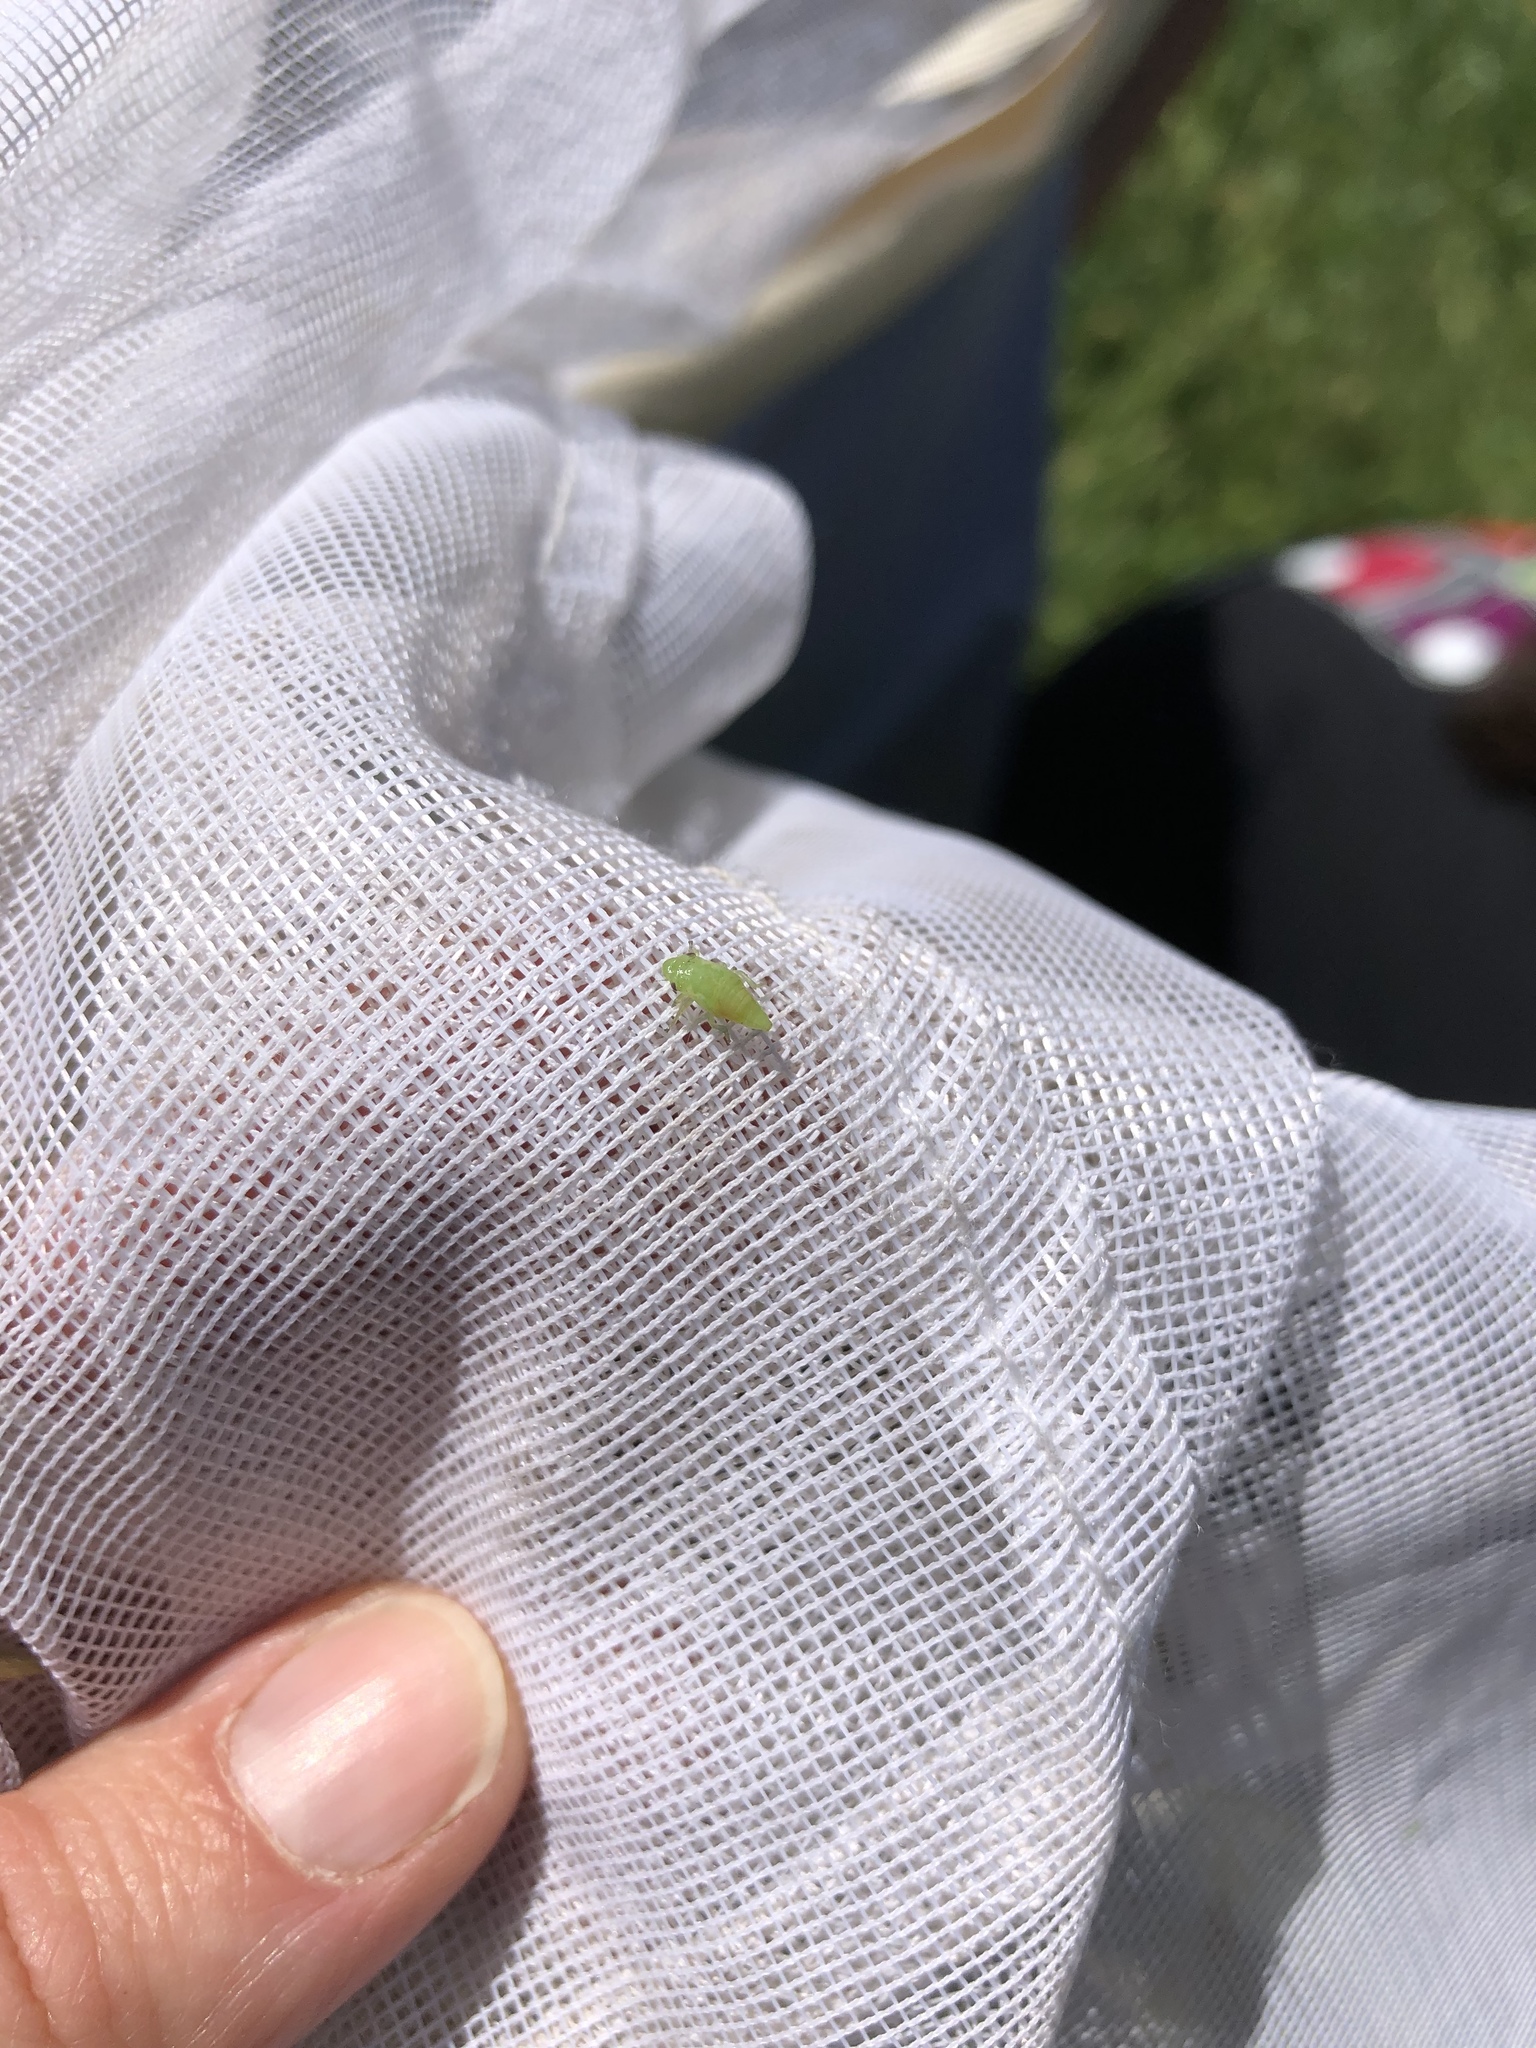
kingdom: Animalia
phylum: Arthropoda
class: Insecta
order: Hemiptera
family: Aphrophoridae
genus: Philaenus
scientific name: Philaenus spumarius
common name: Meadow spittlebug
